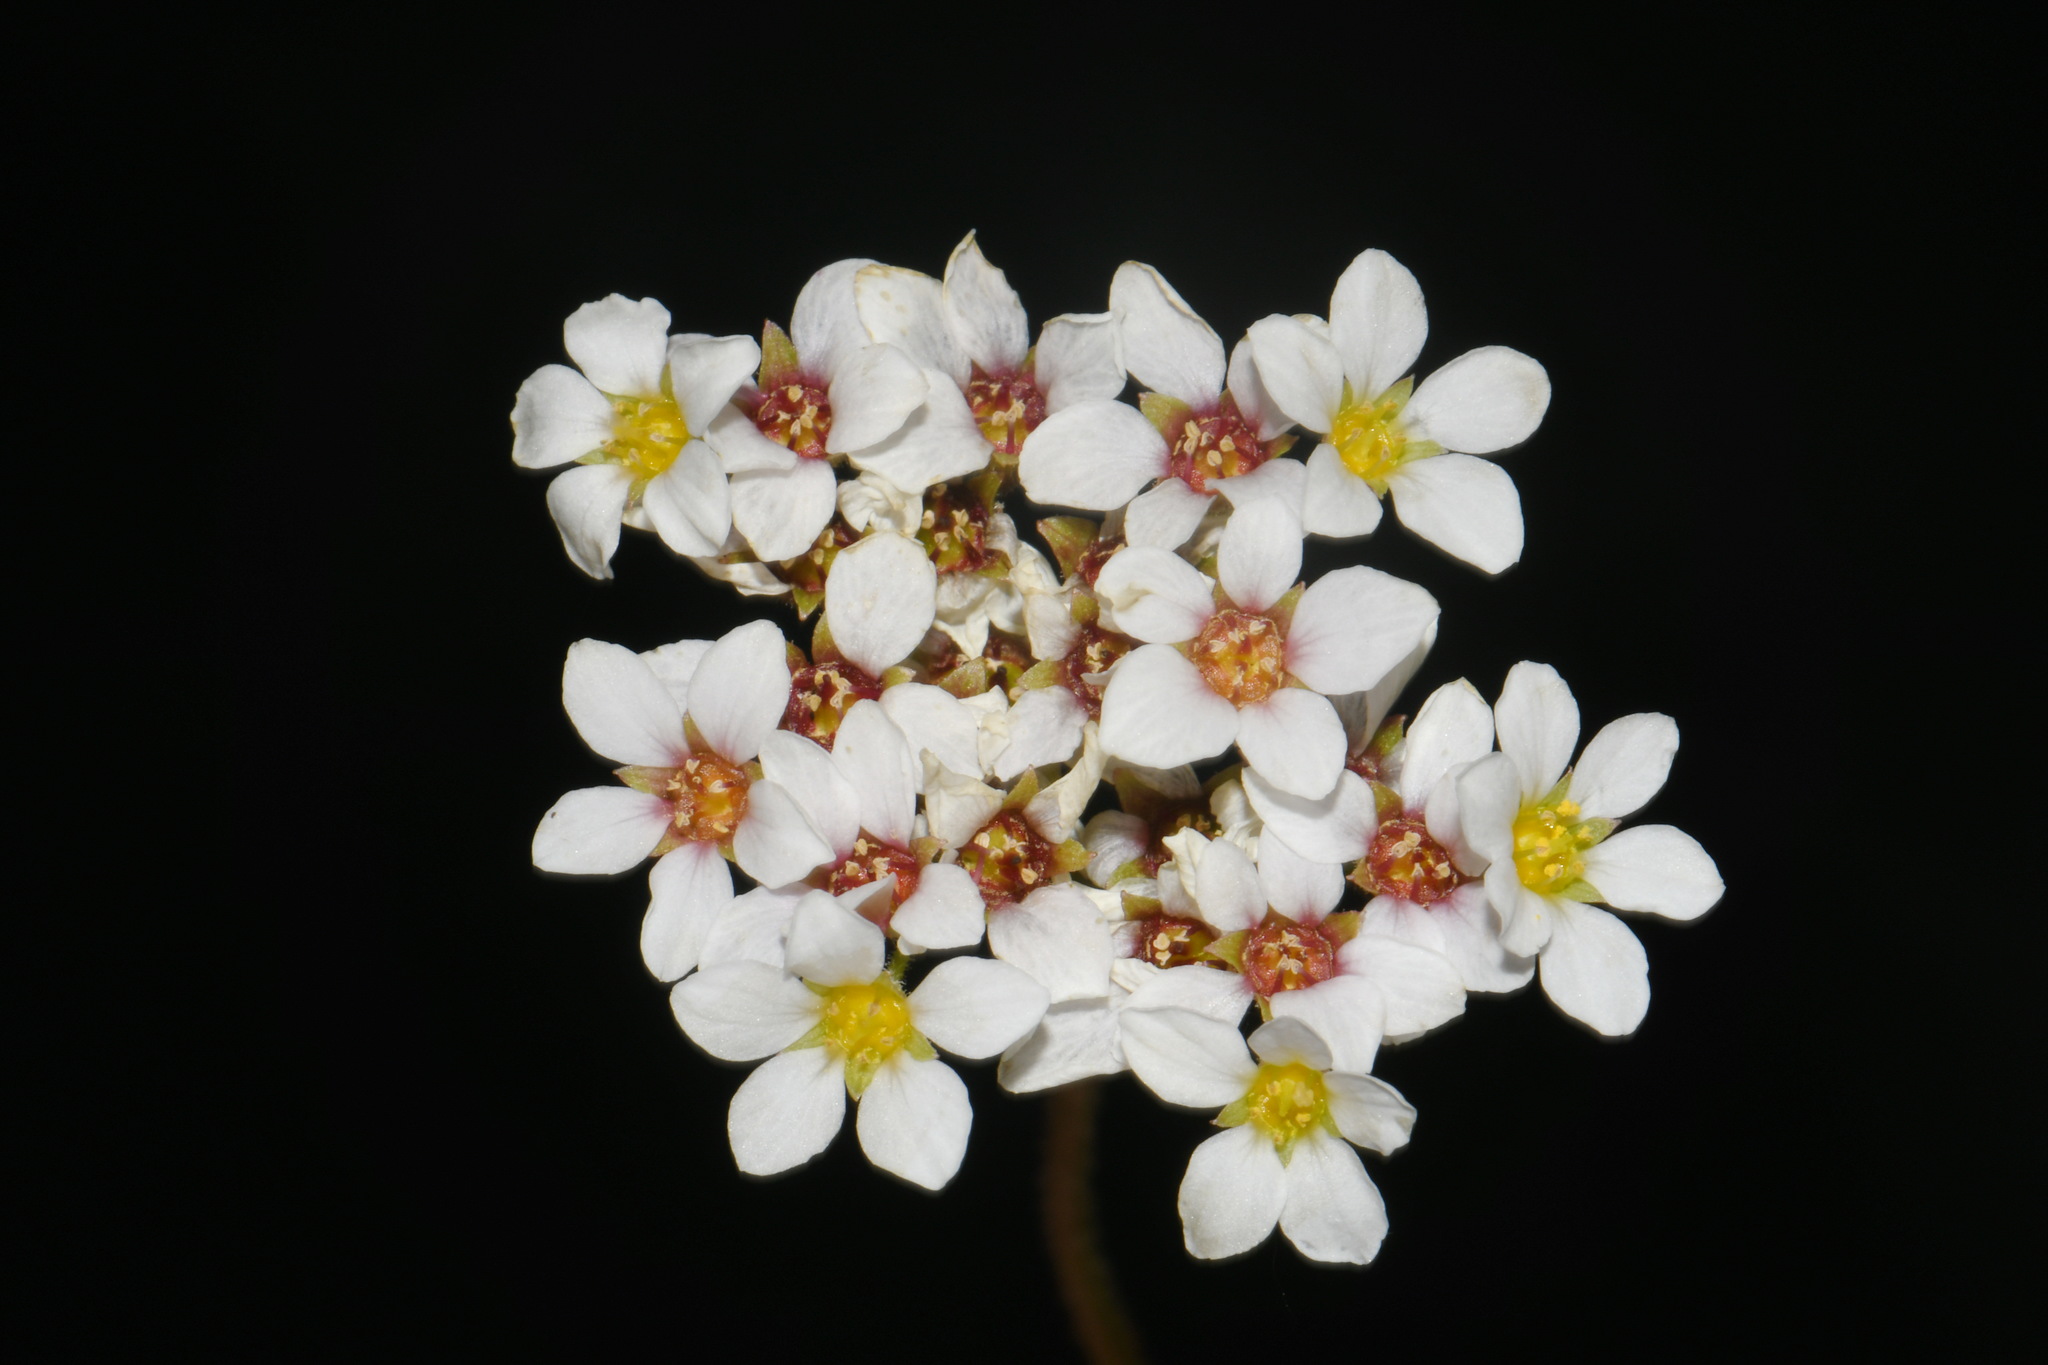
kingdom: Plantae
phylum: Tracheophyta
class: Magnoliopsida
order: Saxifragales
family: Saxifragaceae
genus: Hemieva
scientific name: Hemieva ranunculifolia
